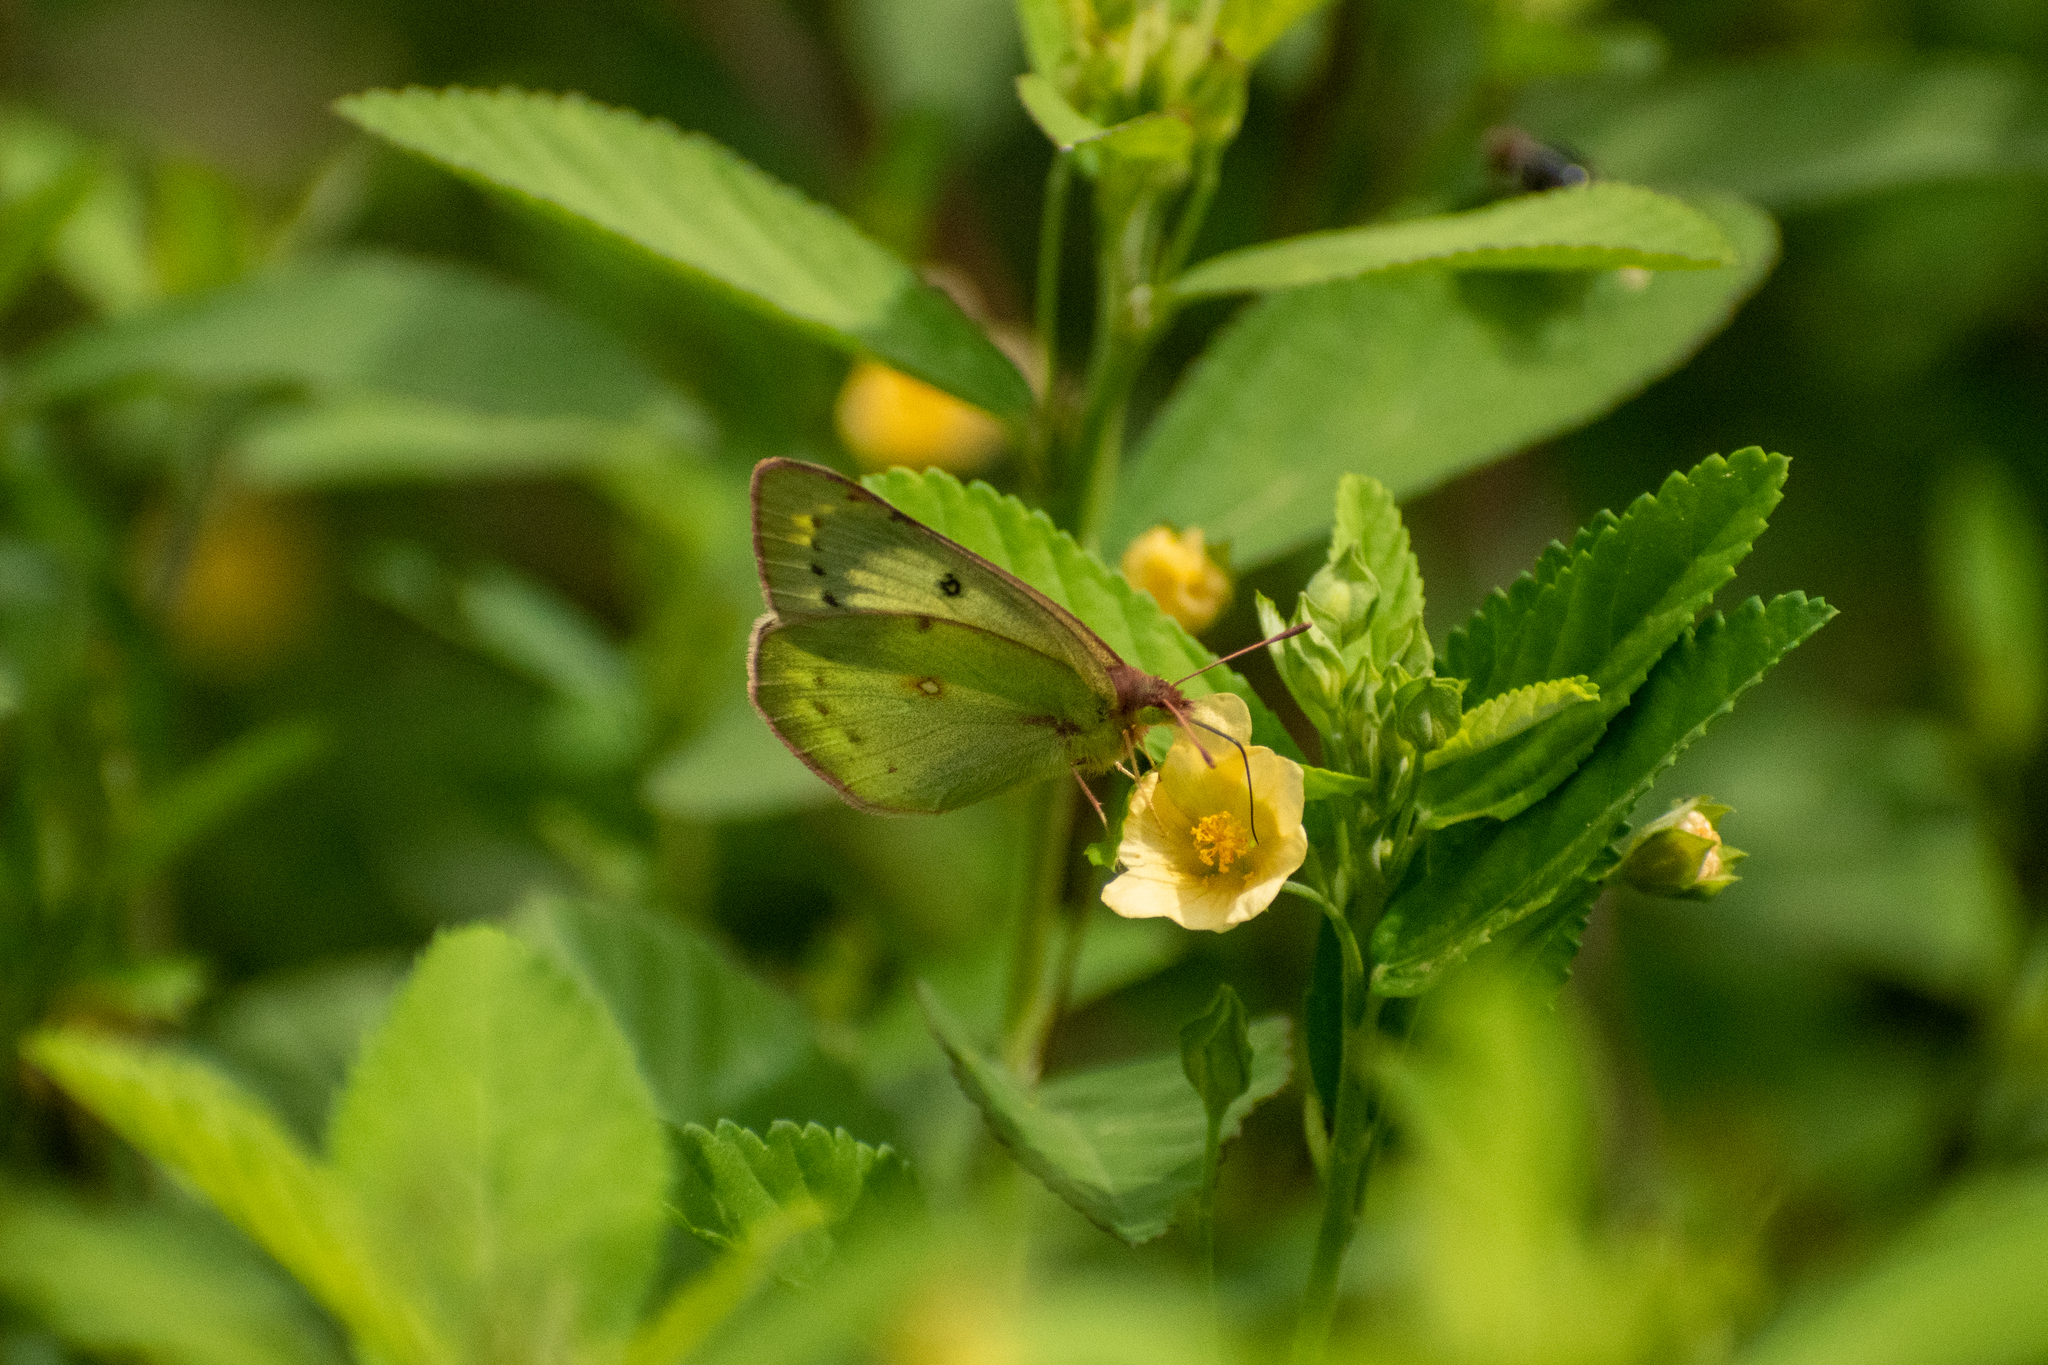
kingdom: Animalia
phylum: Arthropoda
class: Insecta
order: Lepidoptera
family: Pieridae
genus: Colias
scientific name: Colias lesbia
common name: Lesbia clouded yellow
